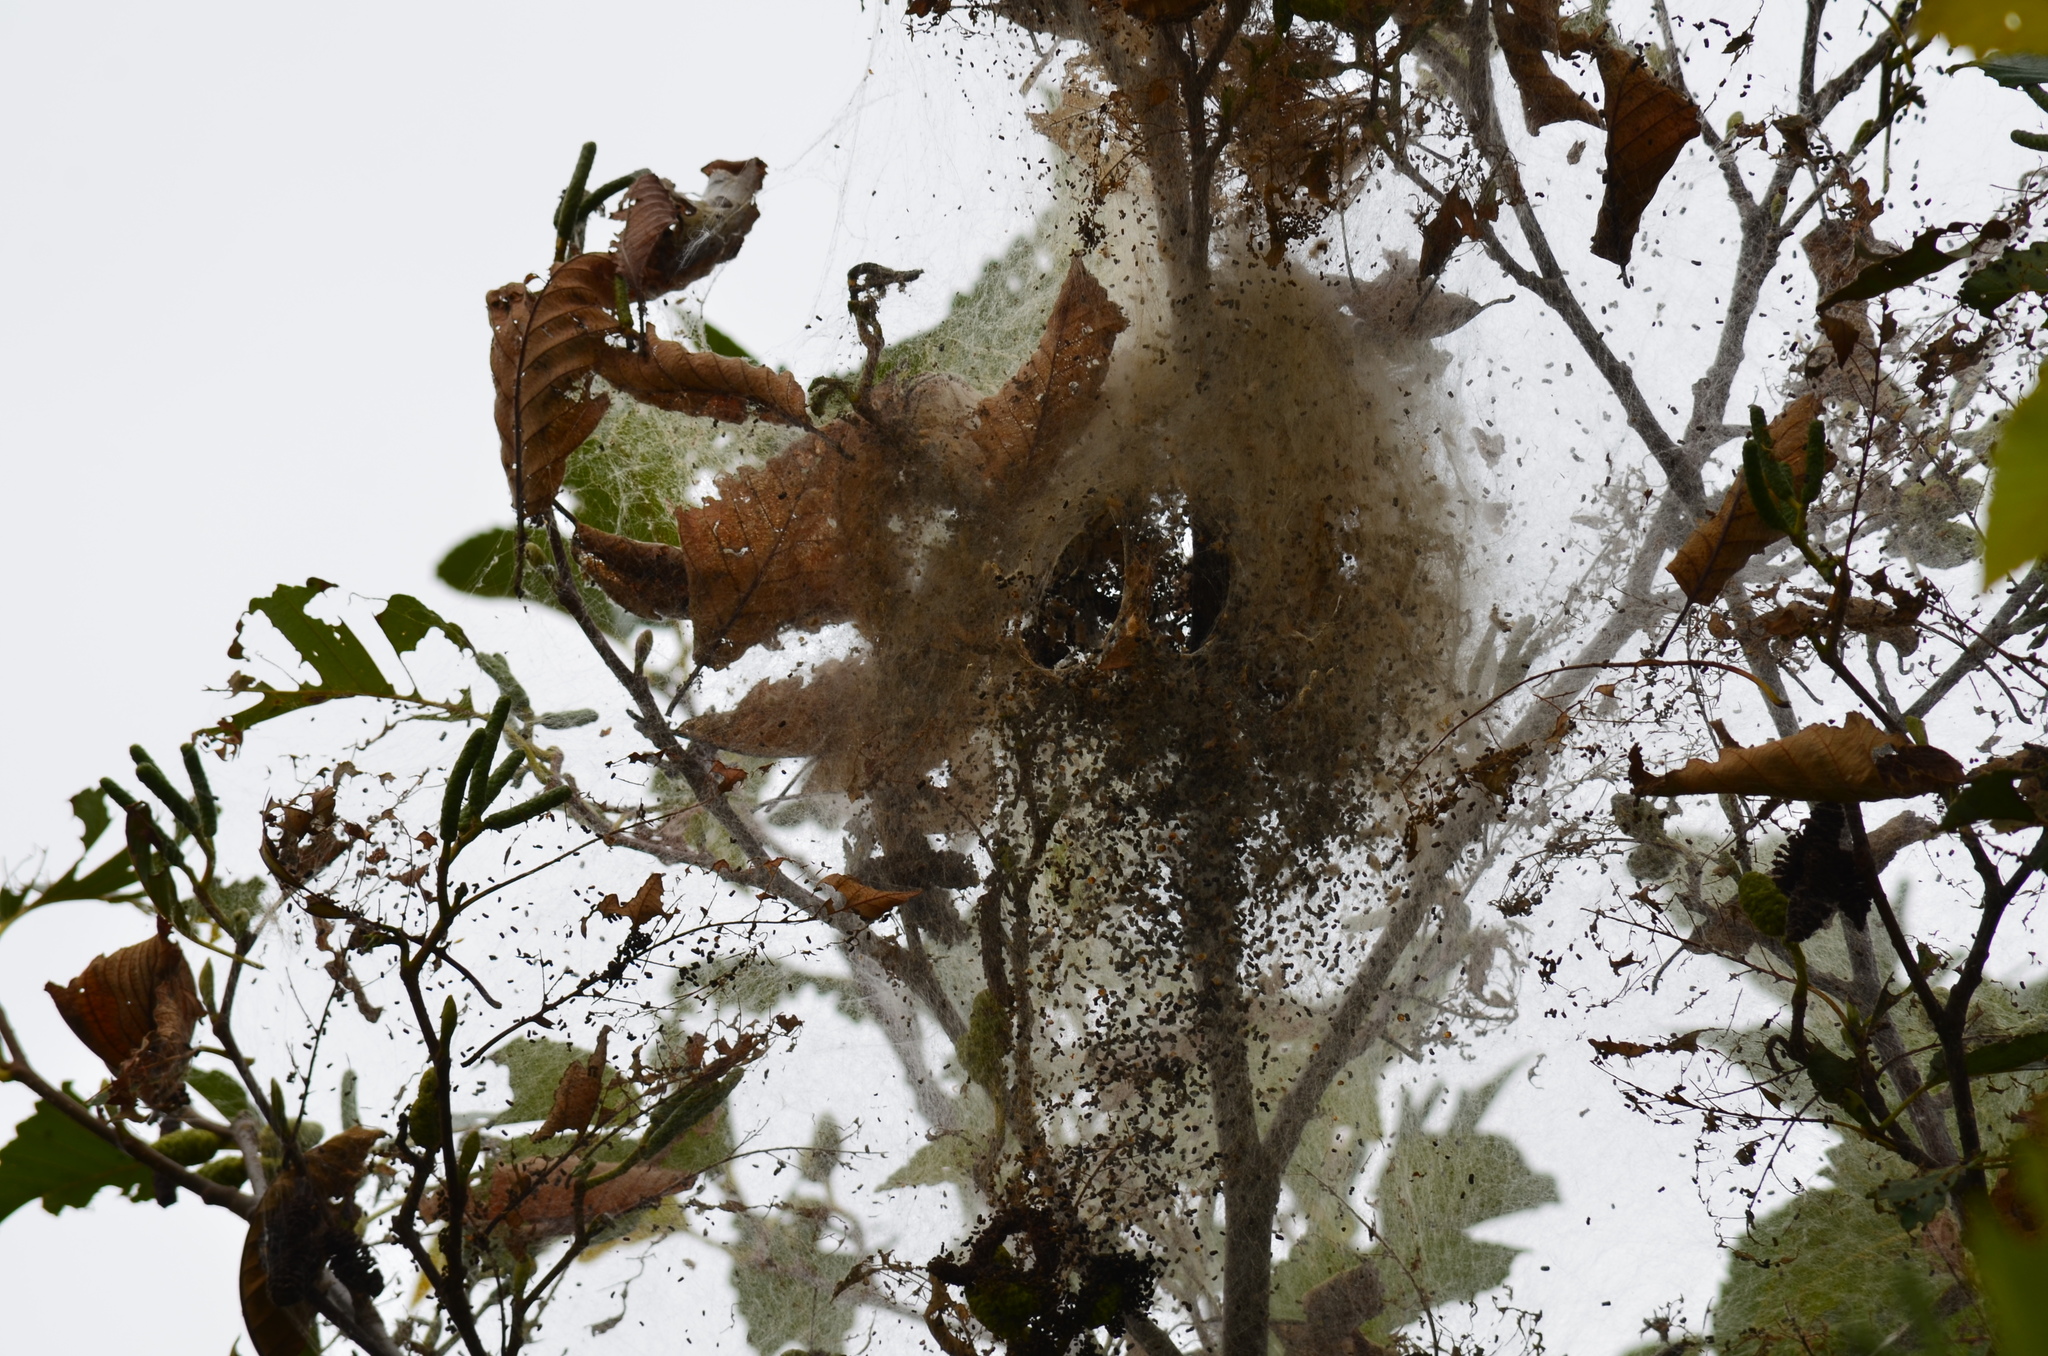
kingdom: Animalia
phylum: Arthropoda
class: Insecta
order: Lepidoptera
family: Erebidae
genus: Hyphantria
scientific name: Hyphantria cunea
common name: American white moth
